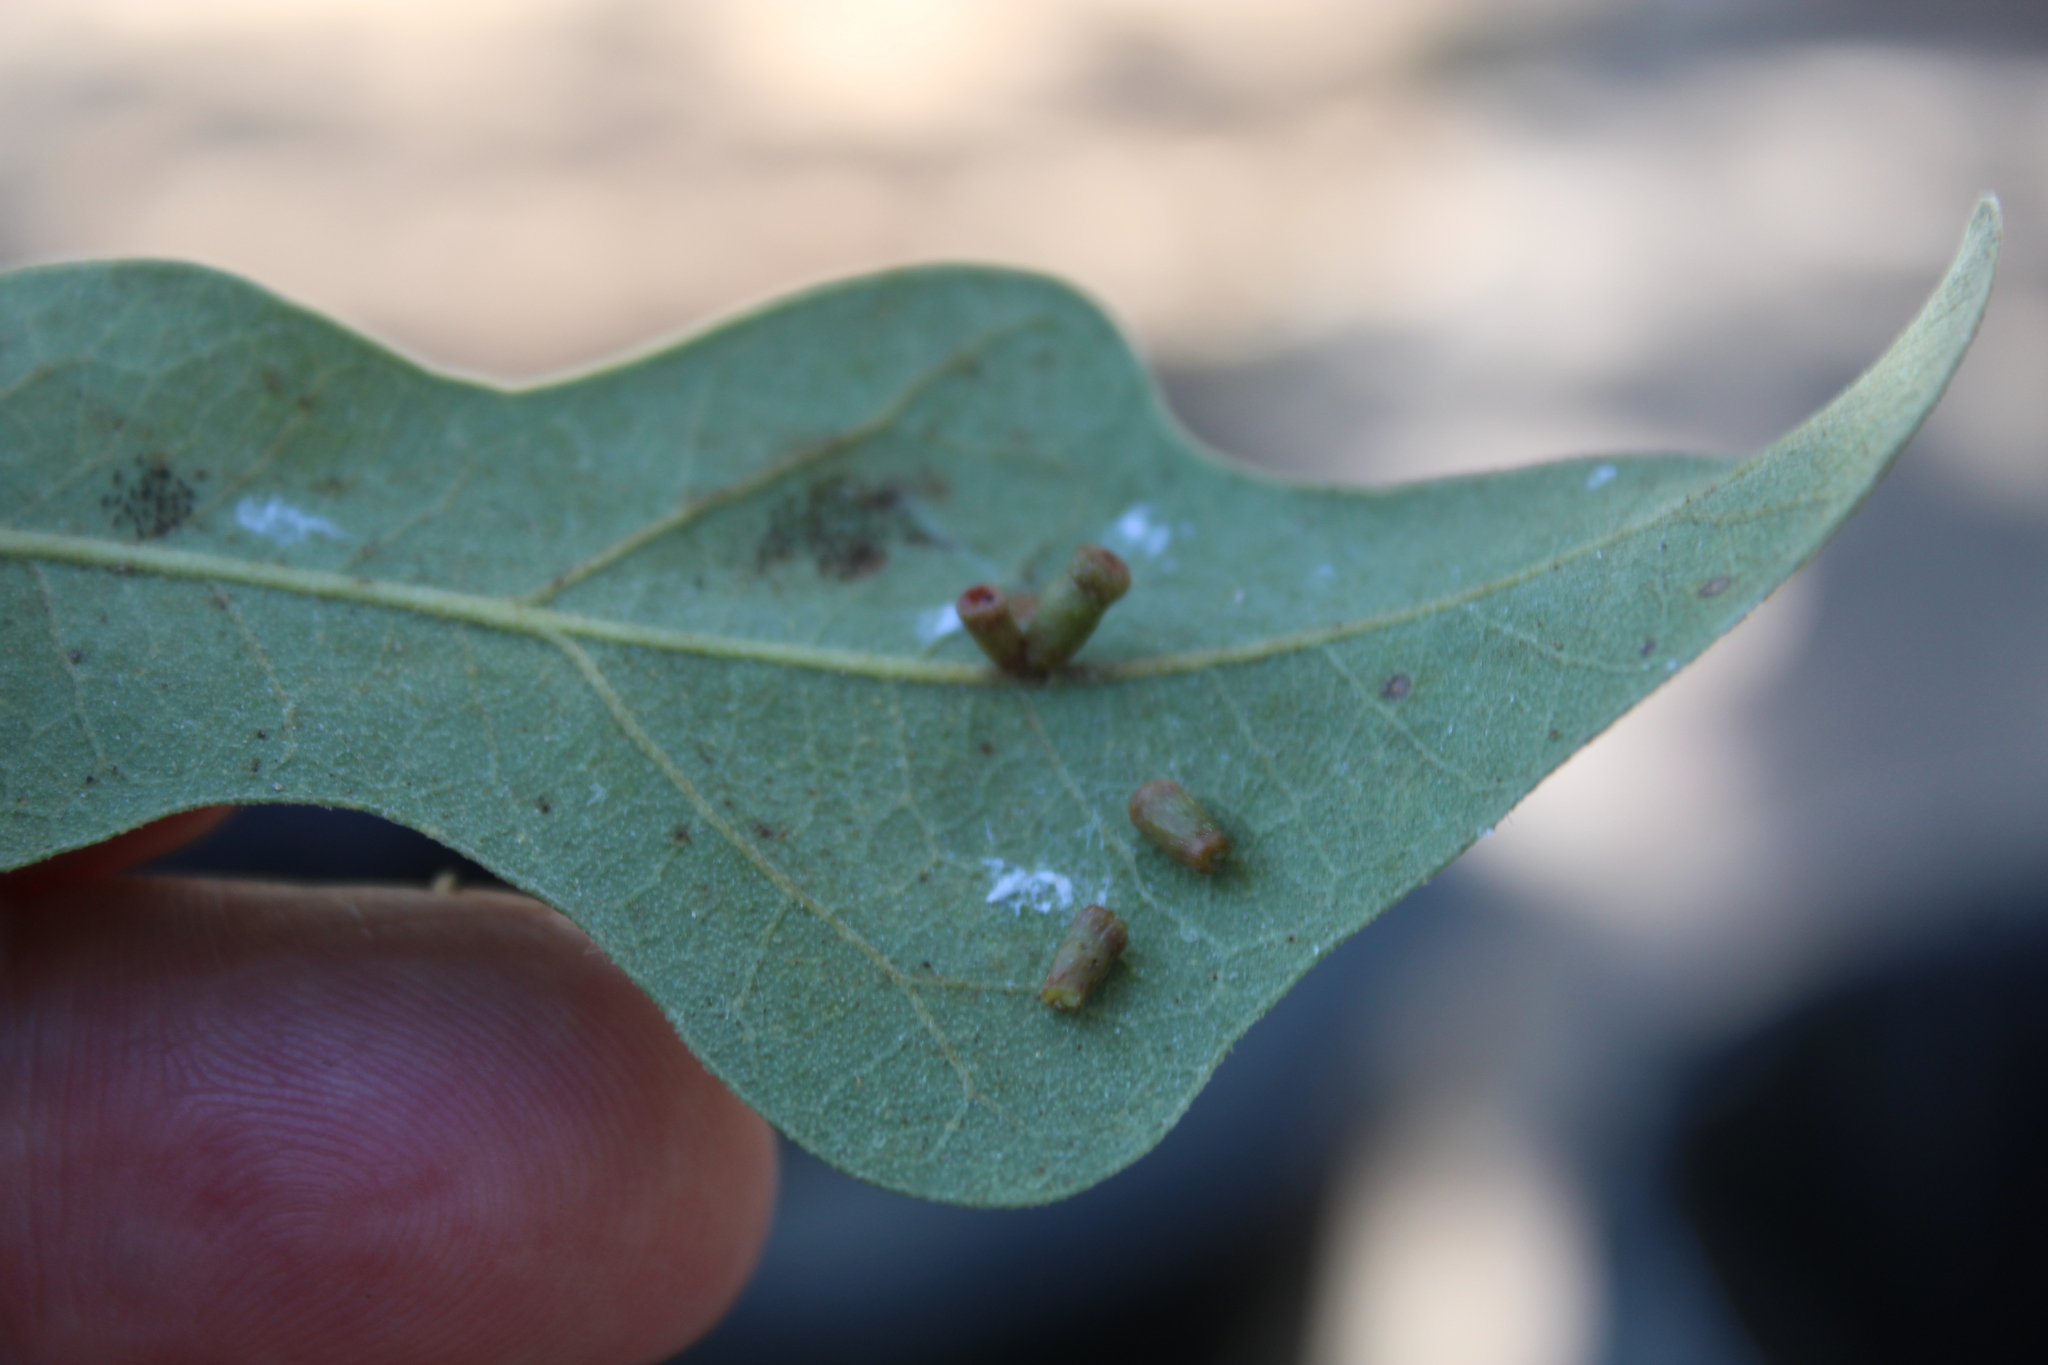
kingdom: Animalia
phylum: Arthropoda
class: Insecta
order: Hymenoptera
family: Cynipidae
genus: Andricus
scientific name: Andricus lustrans
